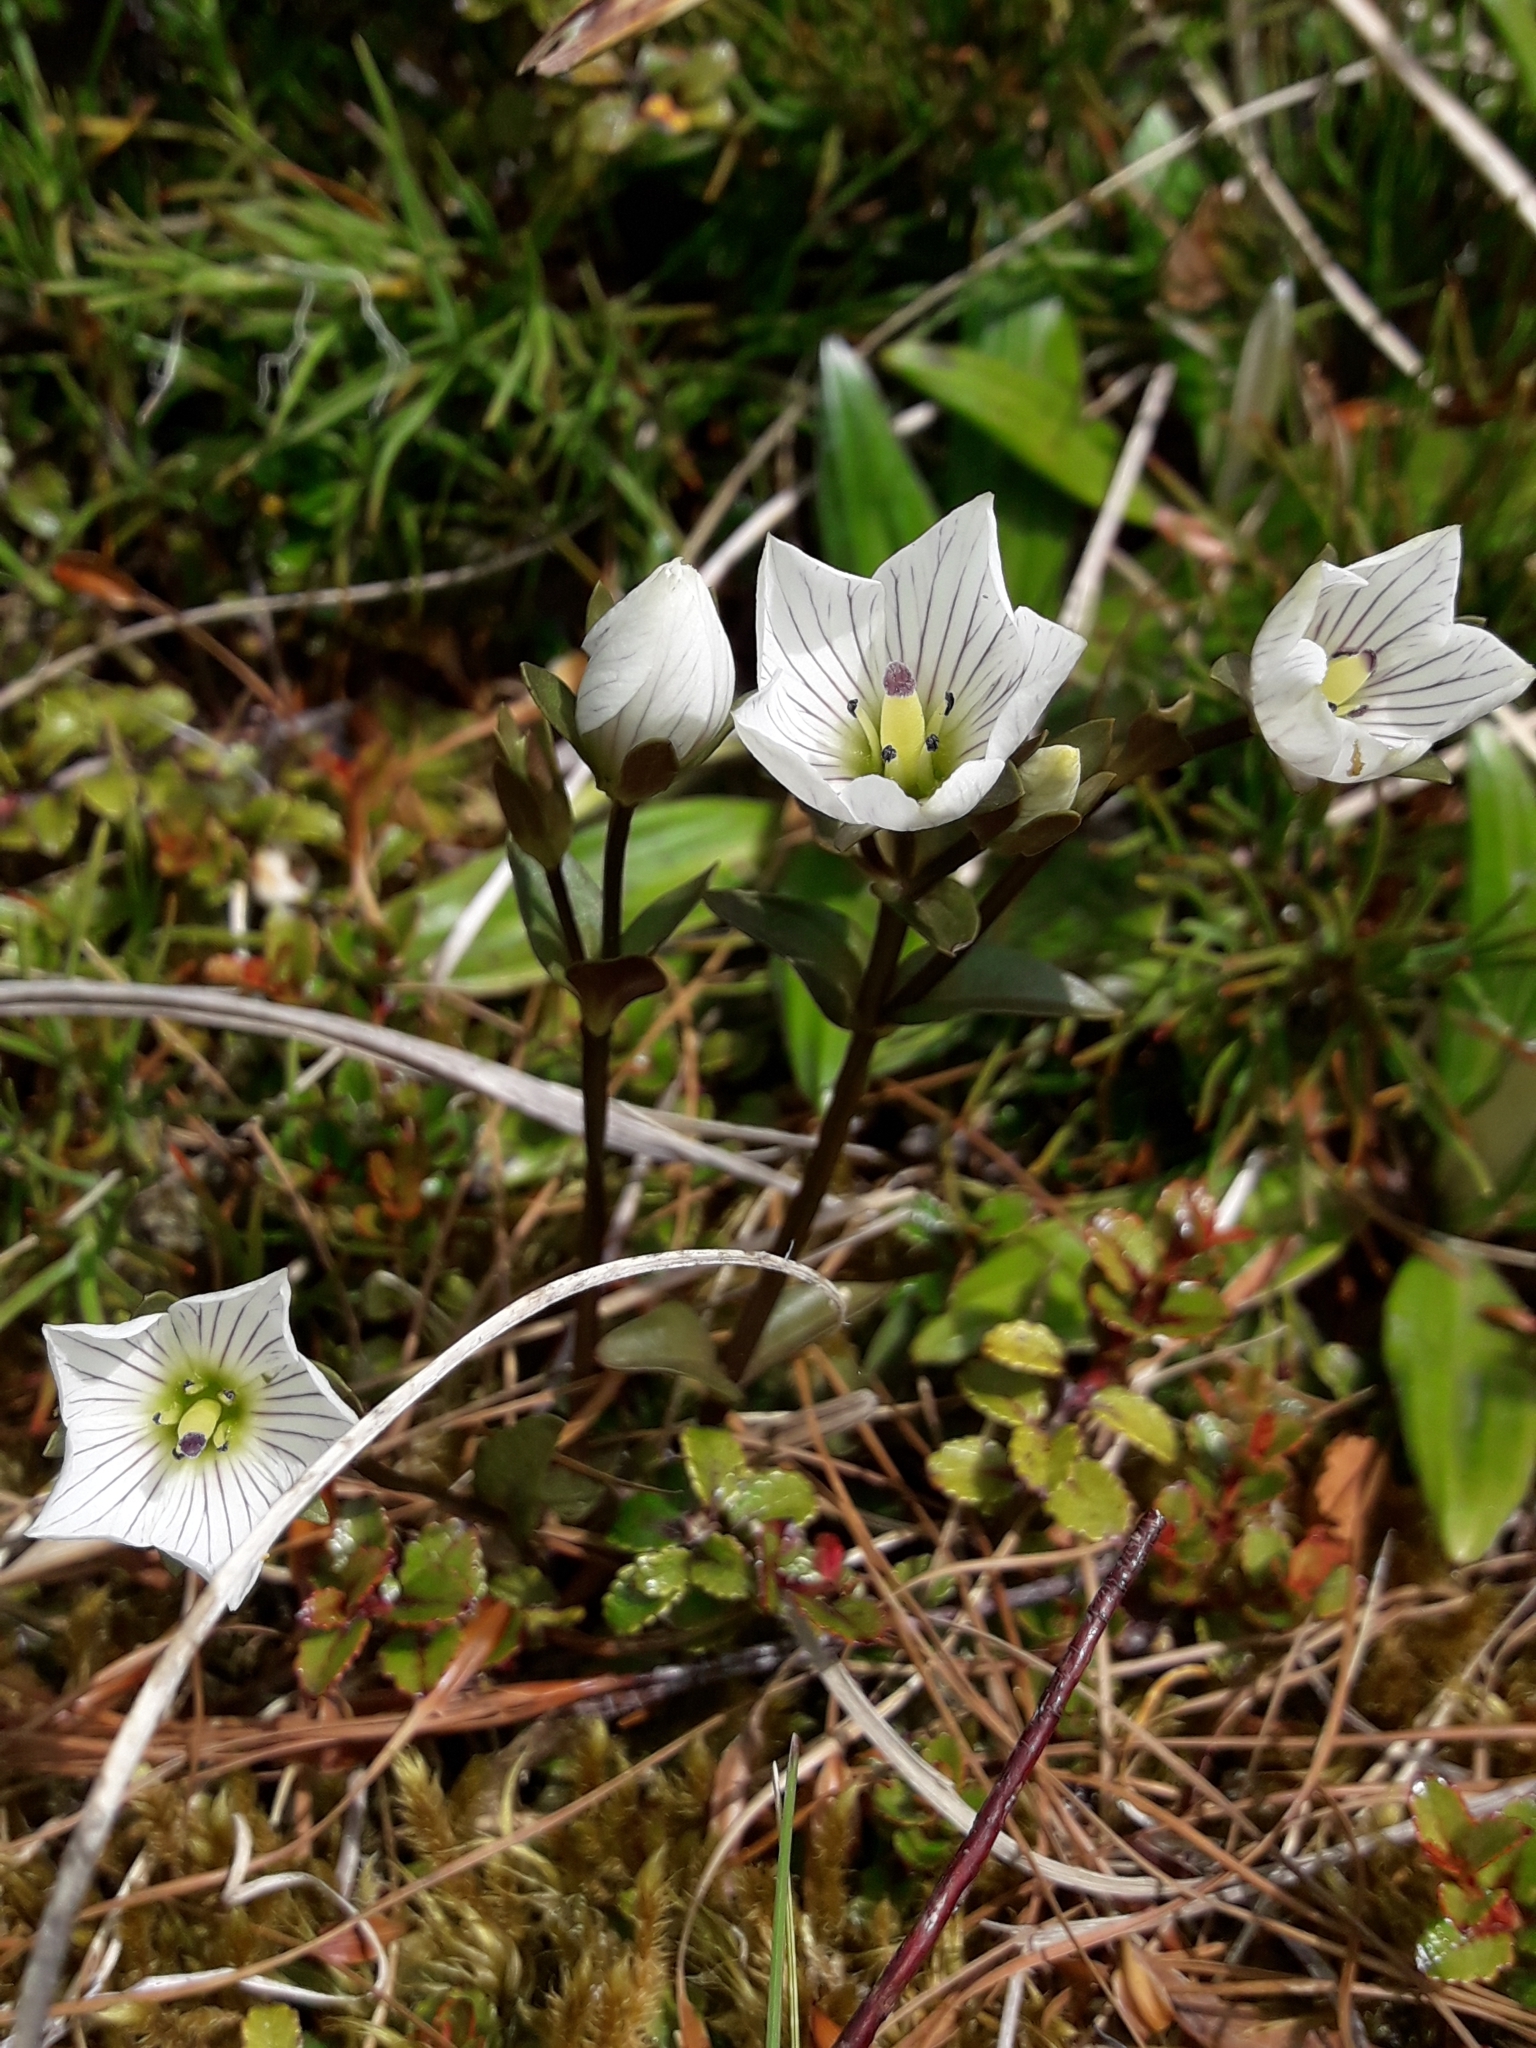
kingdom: Plantae
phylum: Tracheophyta
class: Magnoliopsida
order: Gentianales
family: Gentianaceae
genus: Gentianella
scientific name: Gentianella montana
